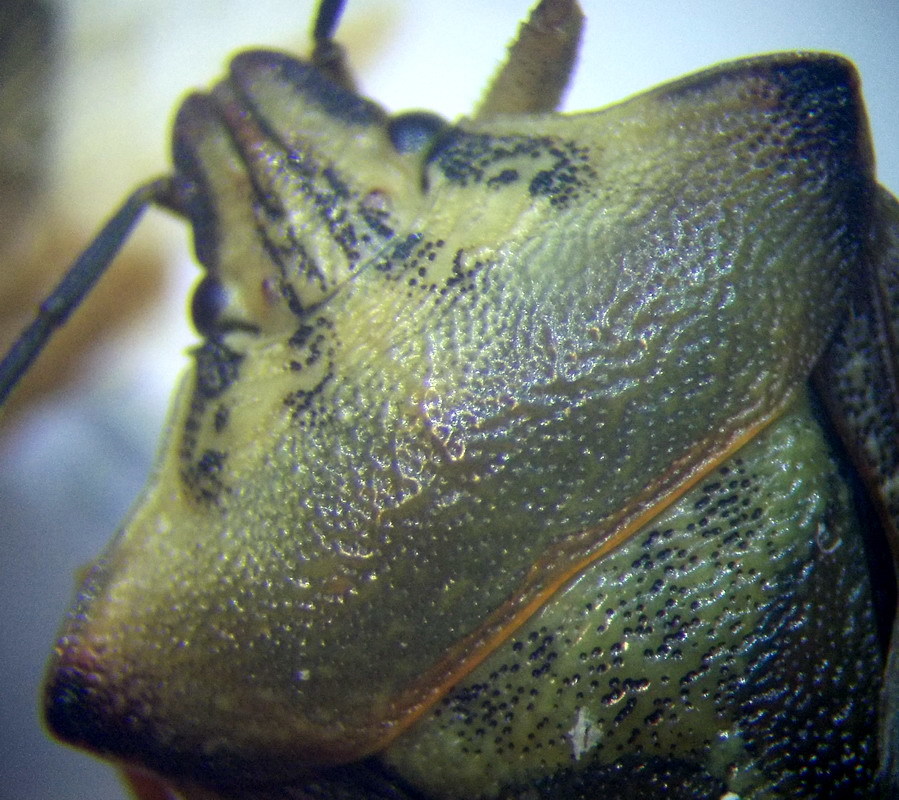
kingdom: Animalia
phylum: Arthropoda
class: Insecta
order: Hemiptera
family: Pentatomidae
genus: Carpocoris
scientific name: Carpocoris coreanus
